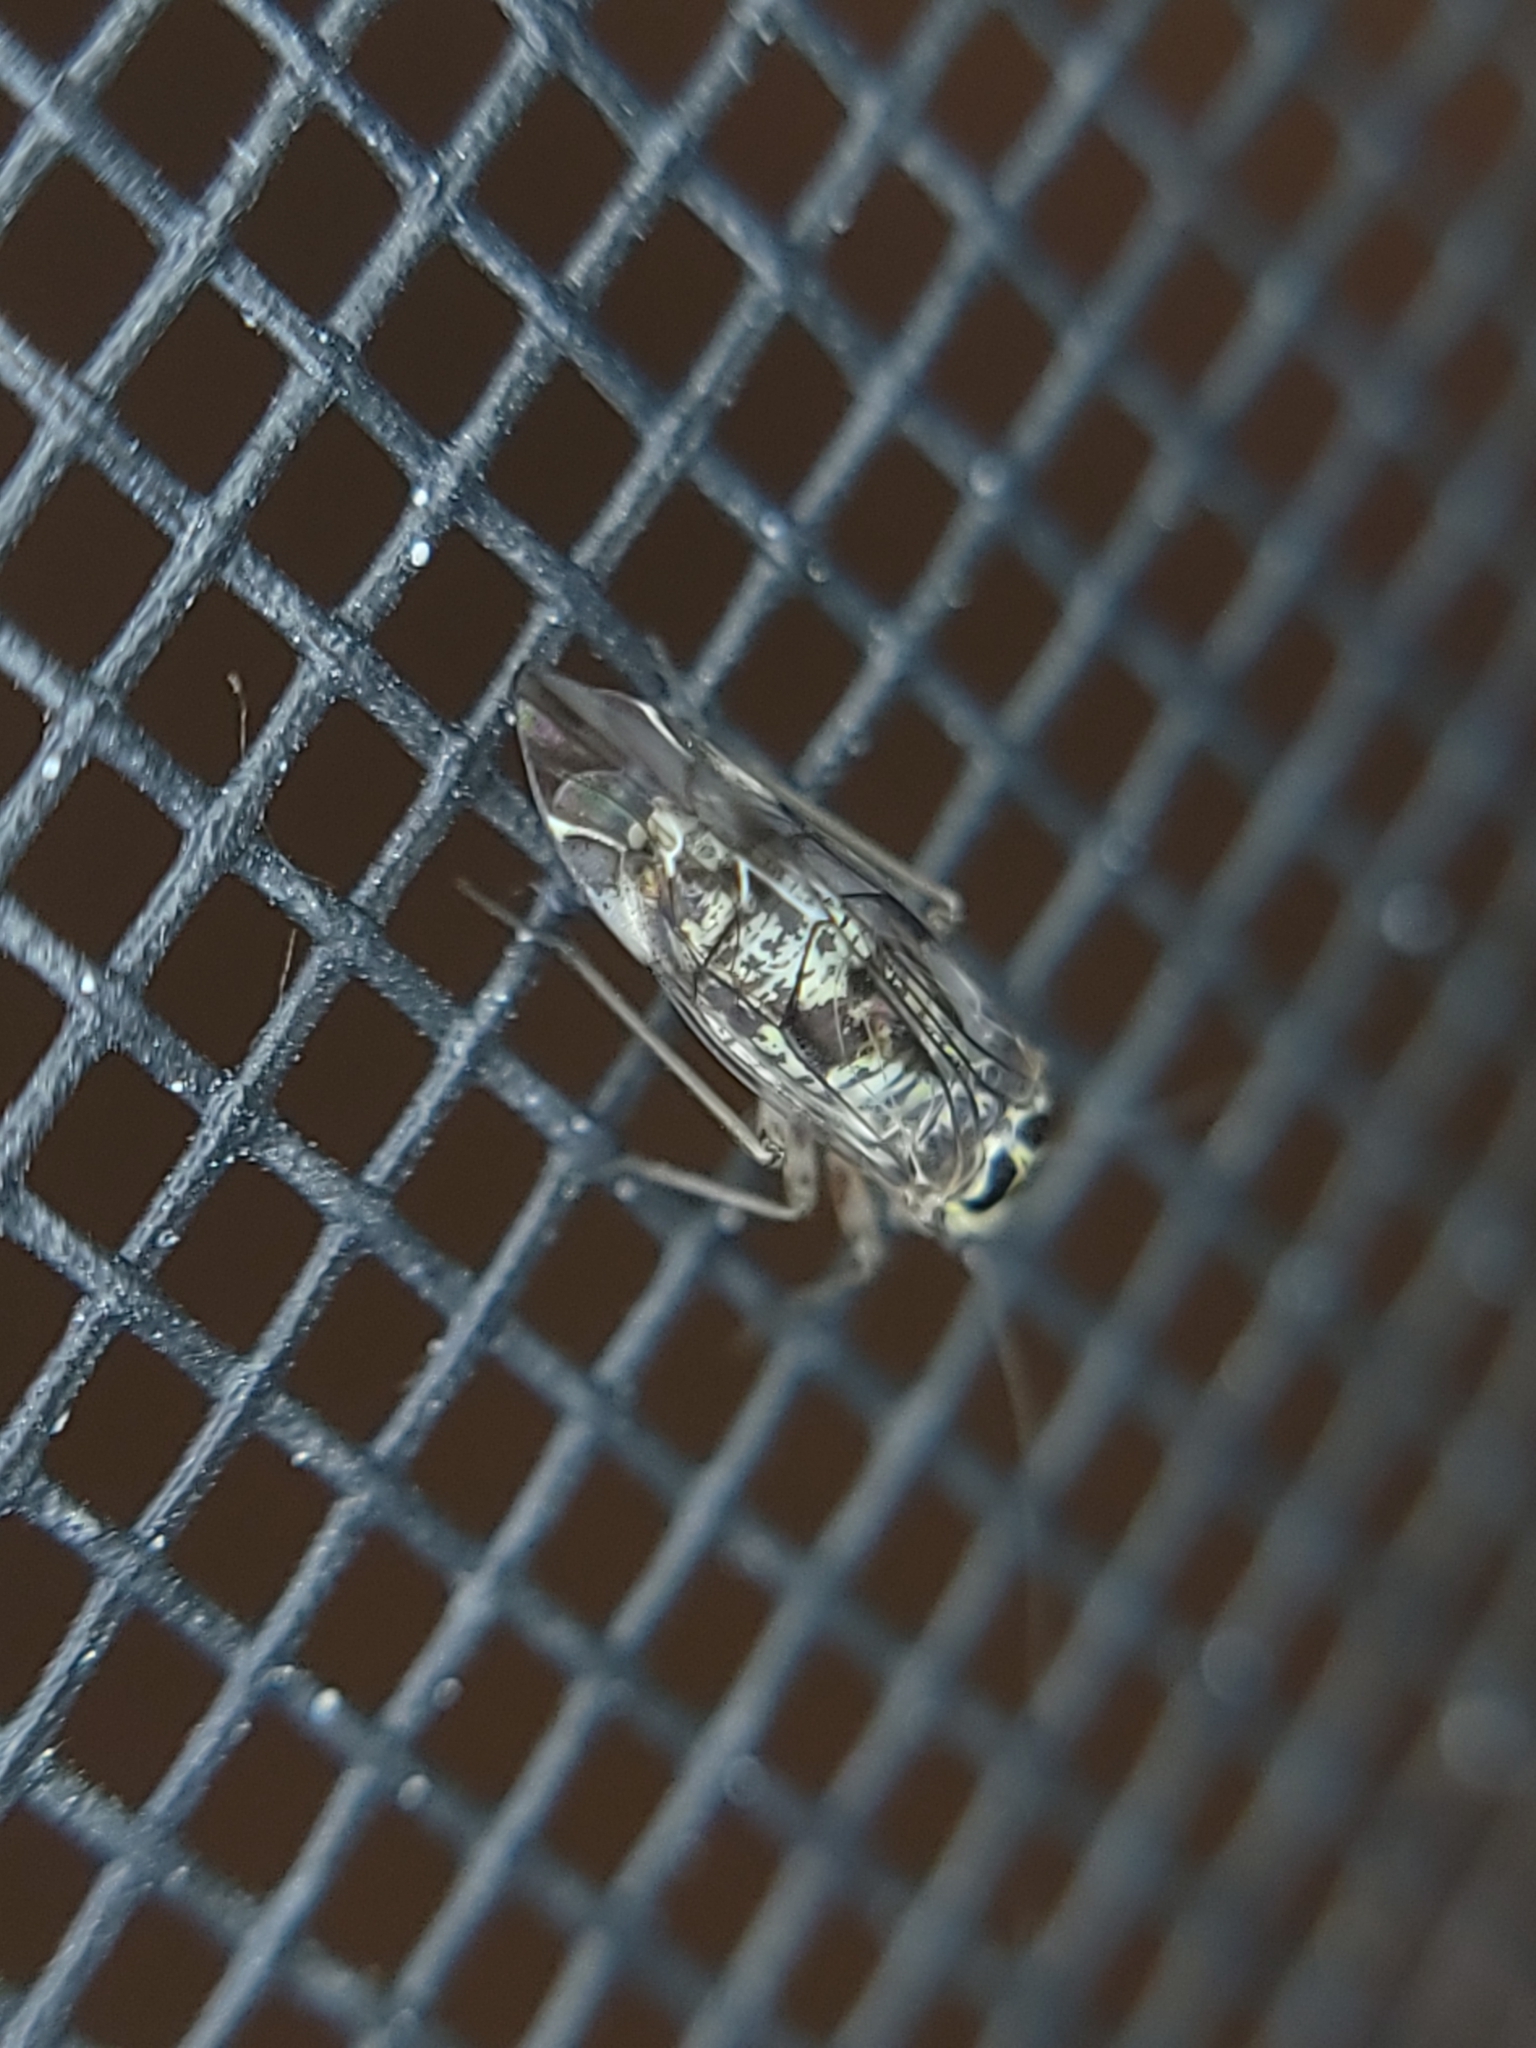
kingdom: Animalia
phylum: Arthropoda
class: Insecta
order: Psocodea
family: Psocidae
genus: Metylophorus
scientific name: Metylophorus novaescotiae
